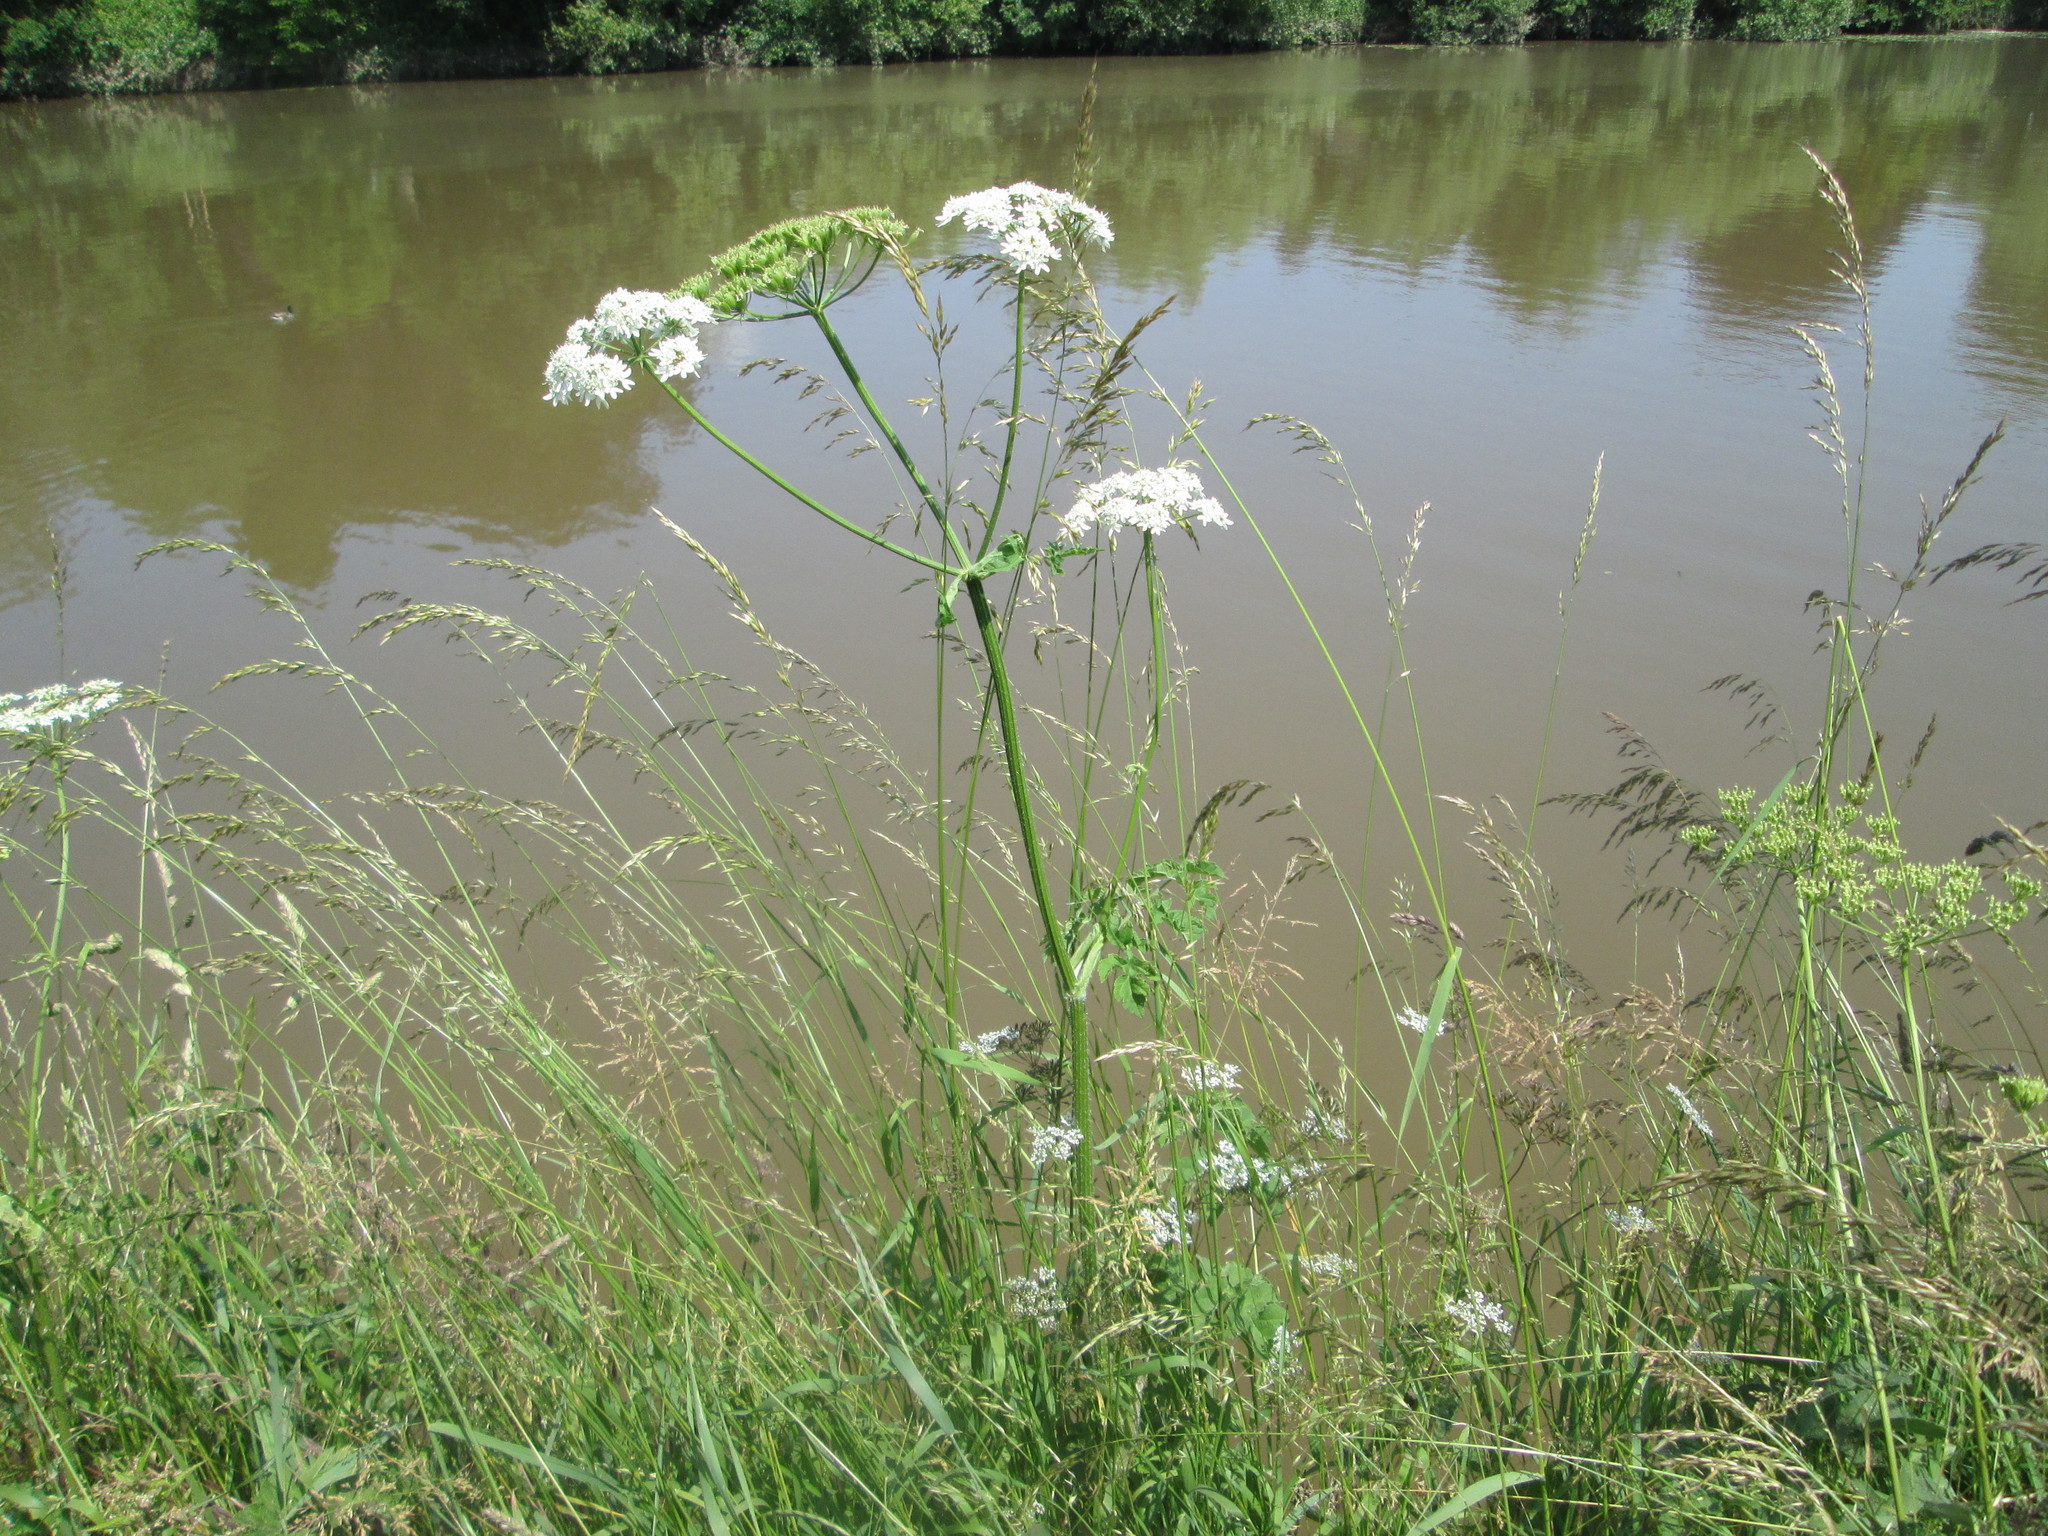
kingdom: Plantae
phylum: Tracheophyta
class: Magnoliopsida
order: Apiales
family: Apiaceae
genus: Heracleum
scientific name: Heracleum sphondylium
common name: Hogweed
